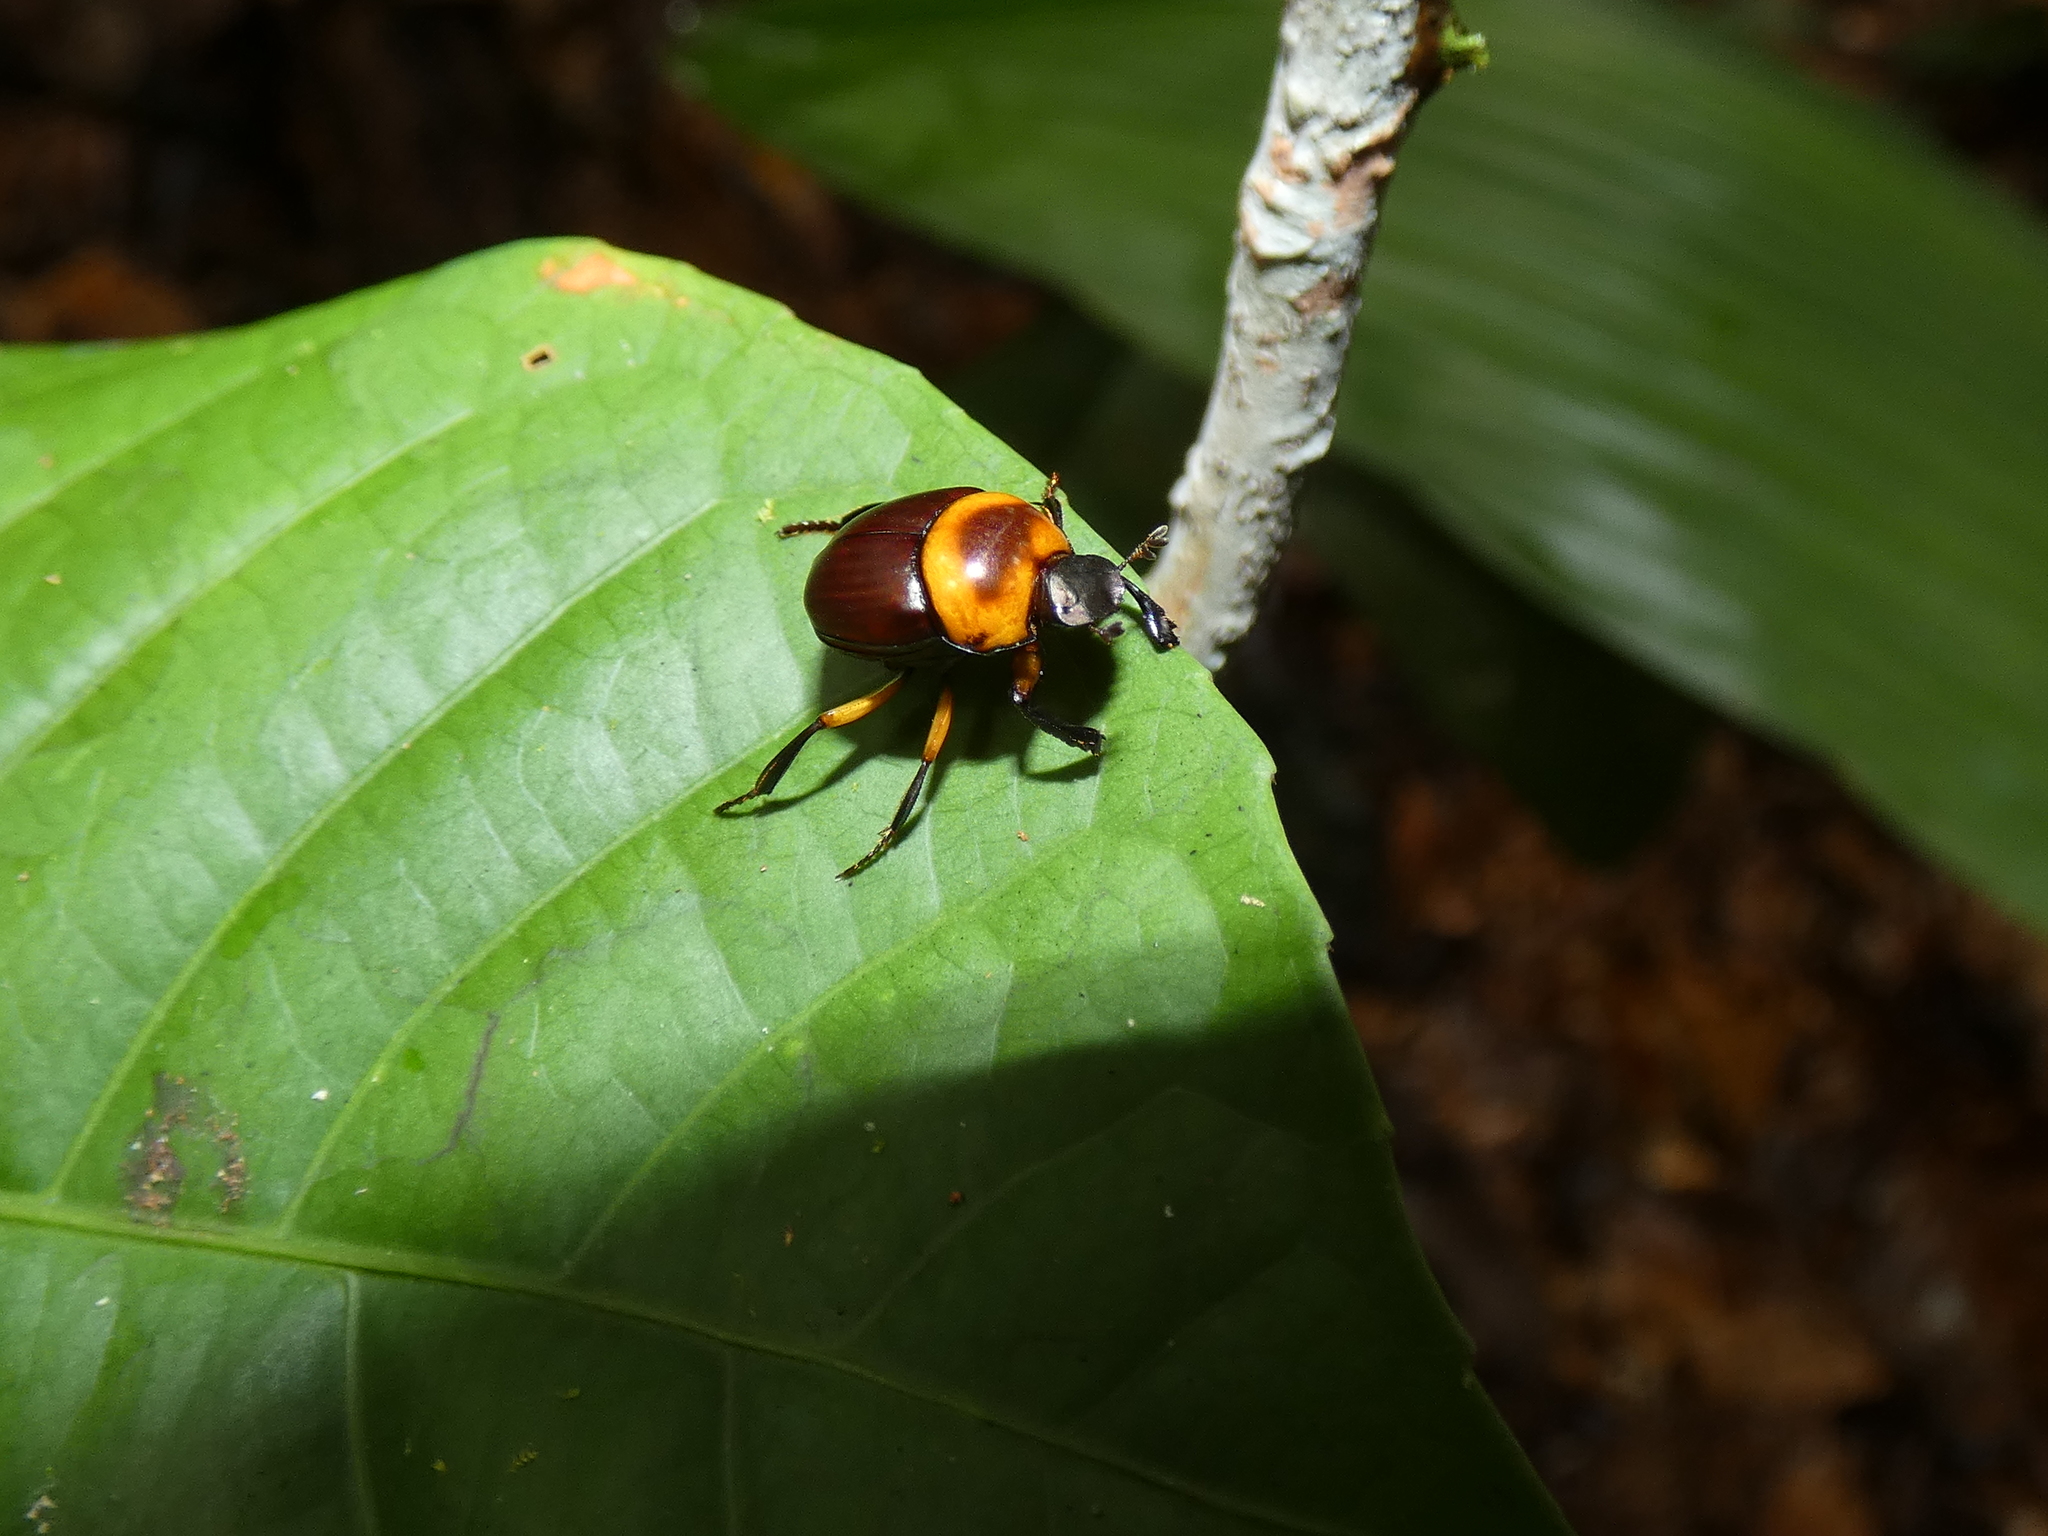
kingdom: Animalia
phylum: Arthropoda
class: Insecta
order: Coleoptera
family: Scarabaeidae
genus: Canthon
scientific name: Canthon luteicollis
